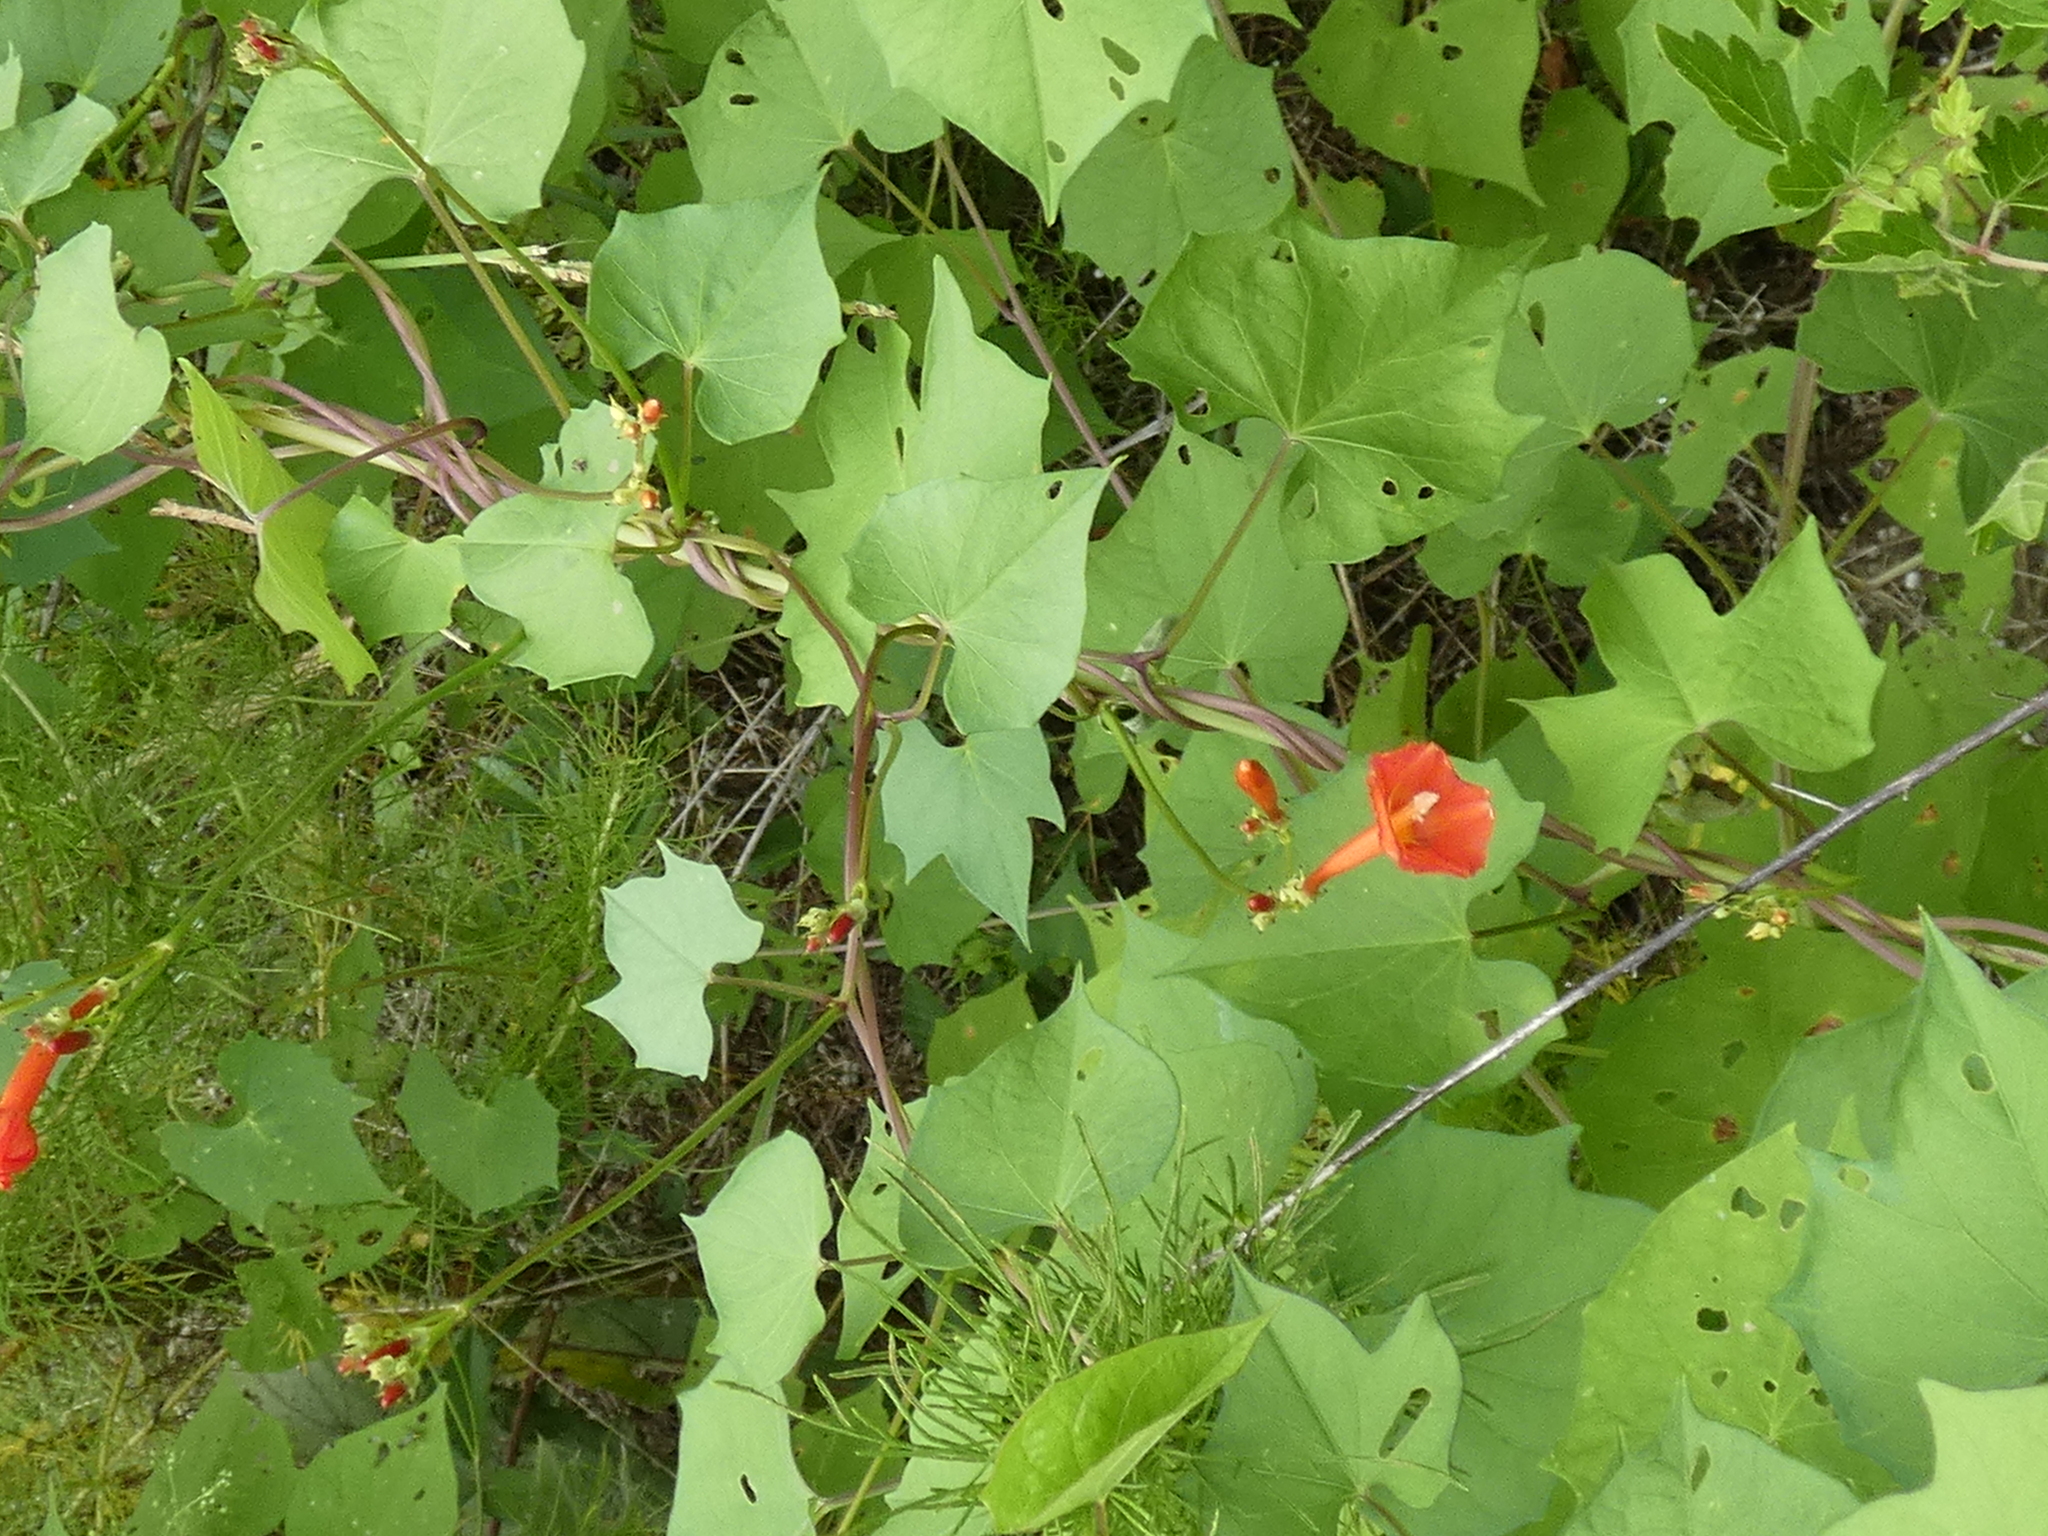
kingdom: Plantae
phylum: Tracheophyta
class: Magnoliopsida
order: Solanales
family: Convolvulaceae
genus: Ipomoea
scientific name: Ipomoea hederifolia
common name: Ivy-leaf morning-glory
